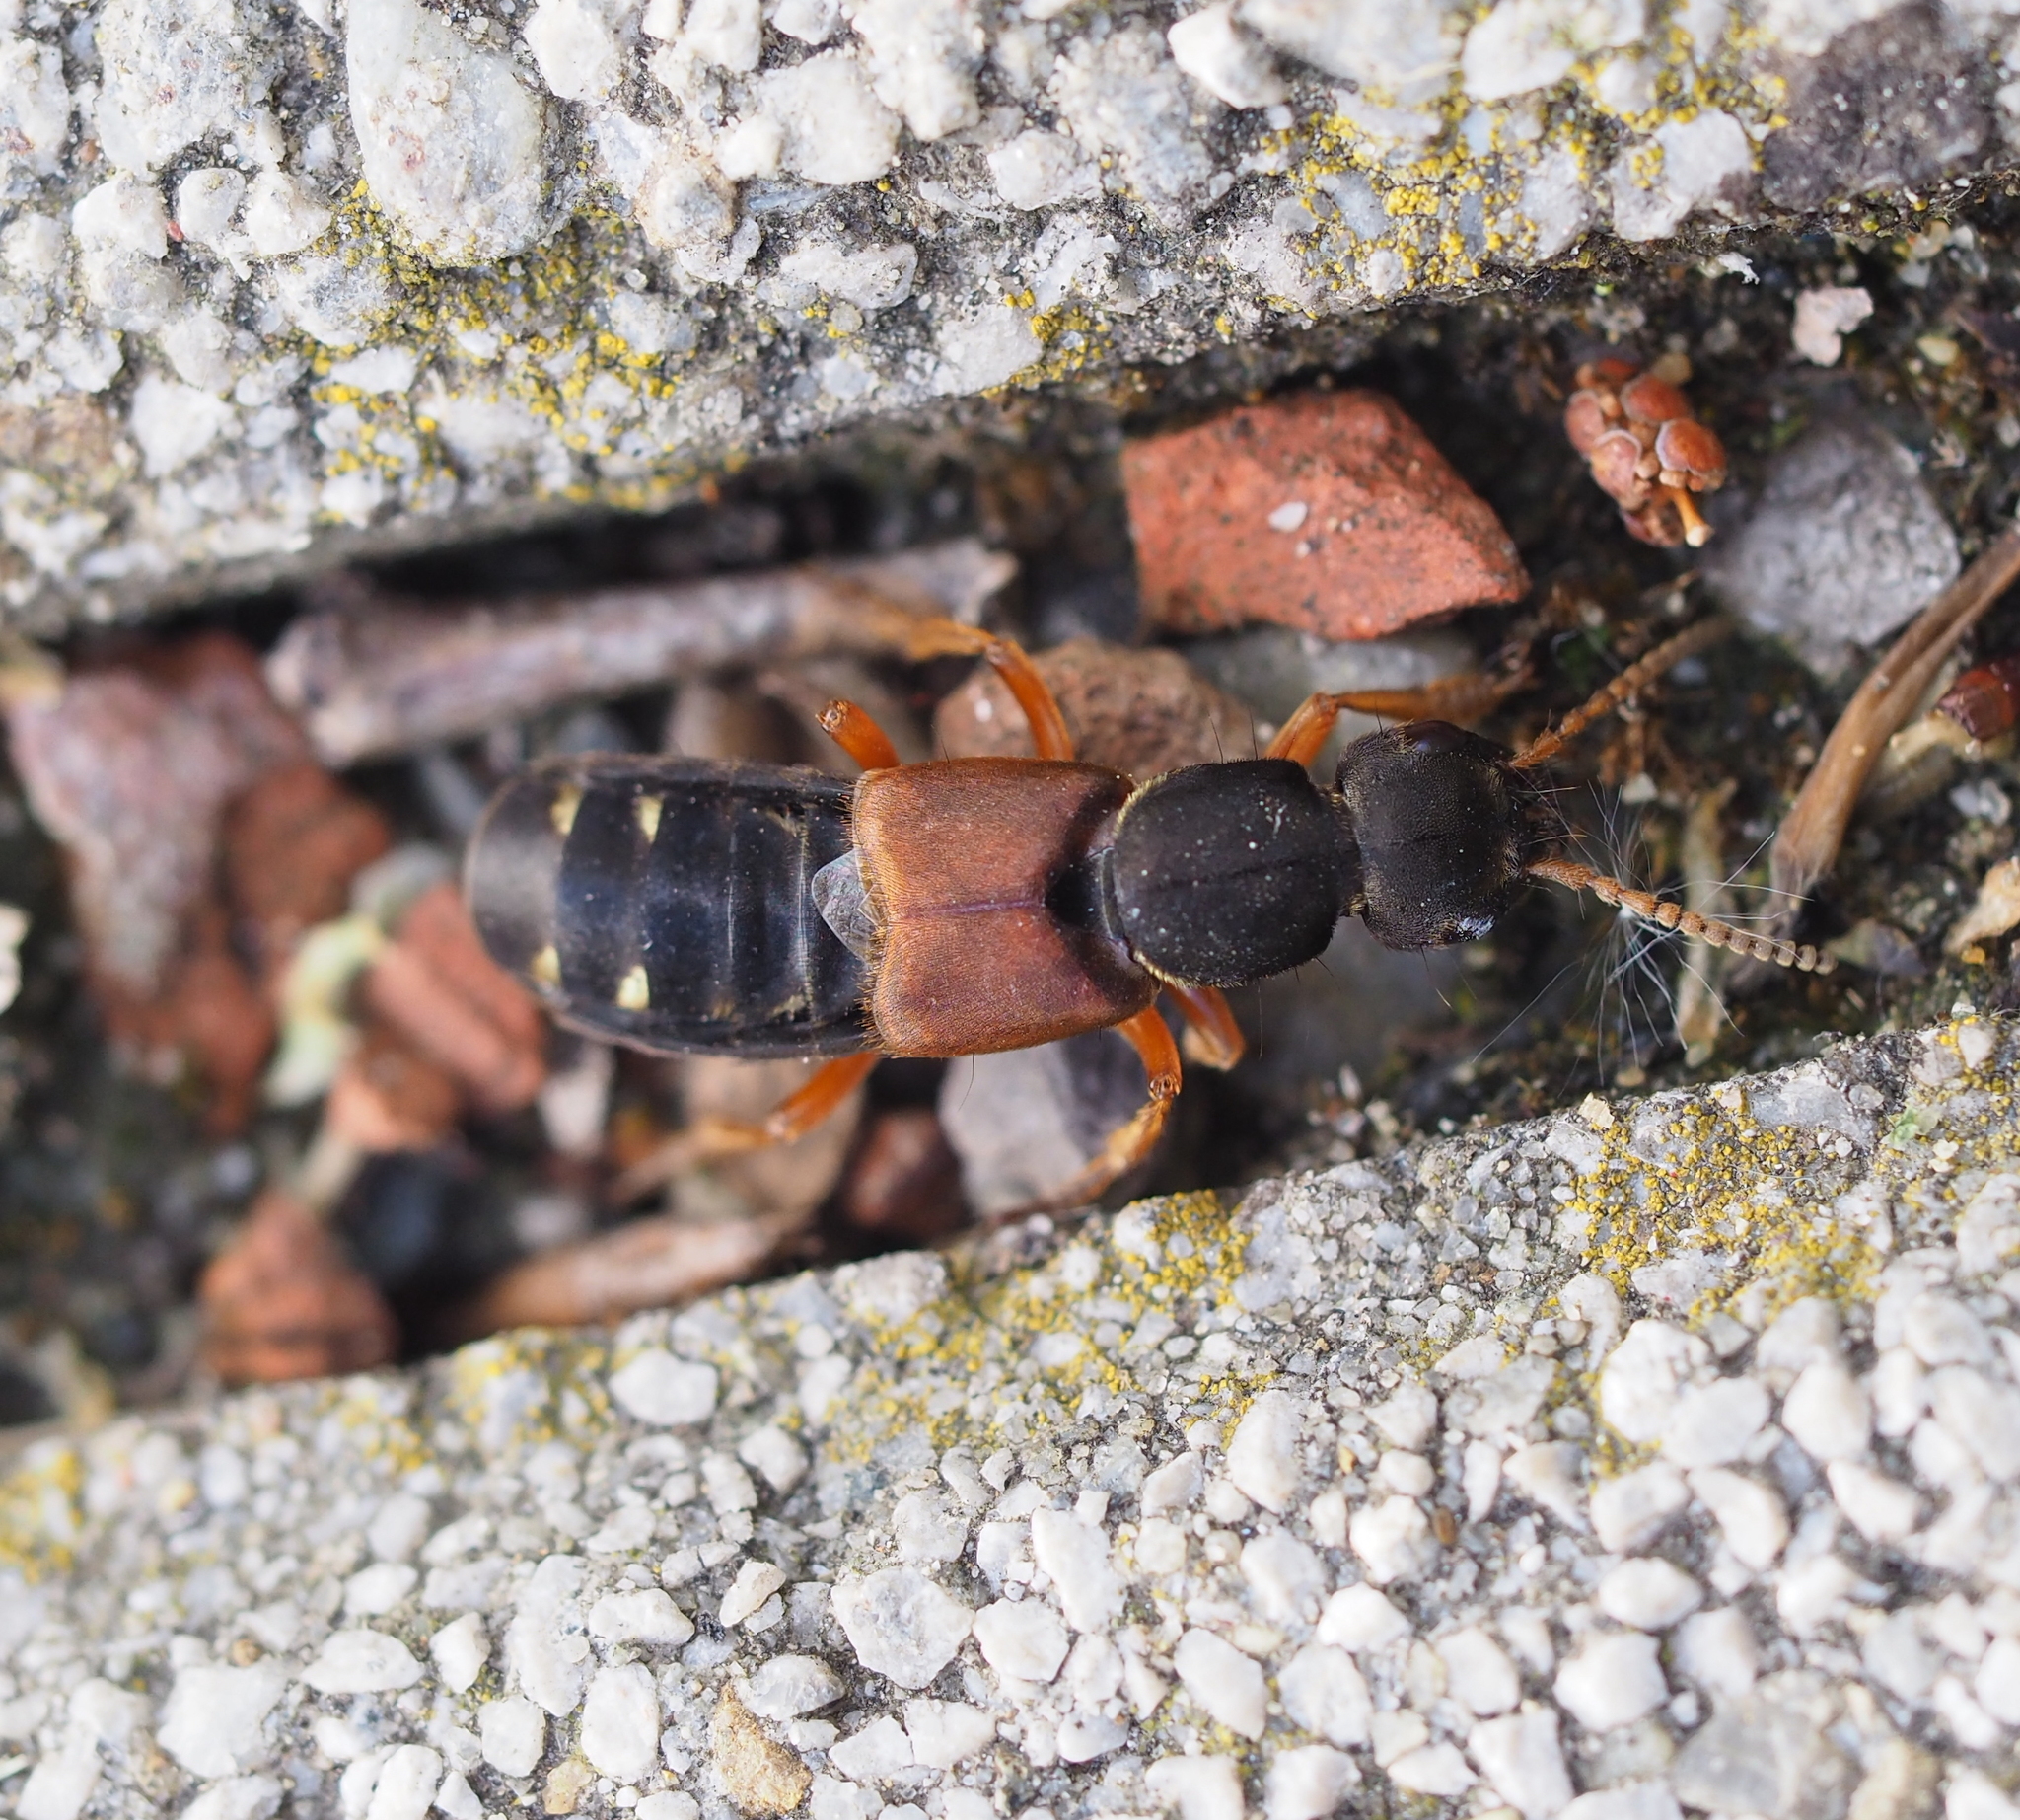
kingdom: Animalia
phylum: Arthropoda
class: Insecta
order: Coleoptera
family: Staphylinidae
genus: Staphylinus
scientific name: Staphylinus dimidiaticornis
